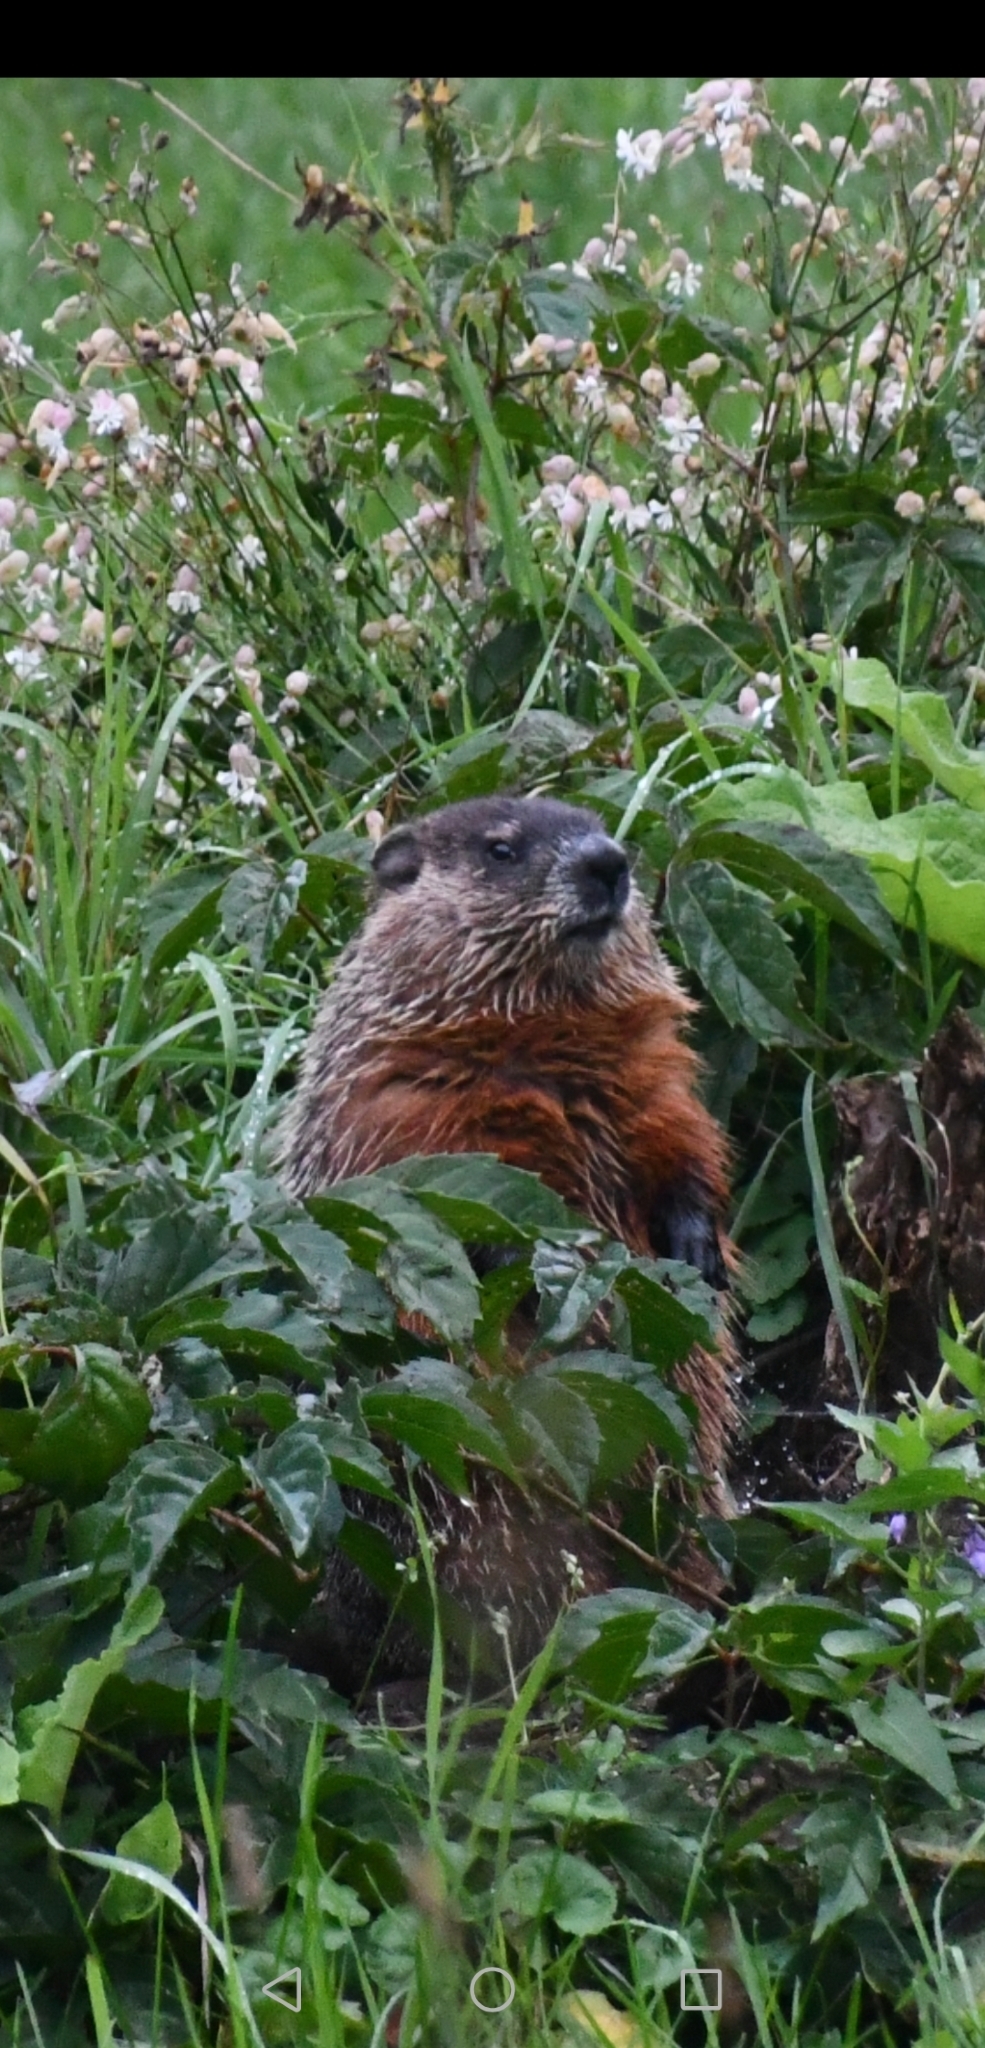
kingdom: Animalia
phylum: Chordata
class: Mammalia
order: Rodentia
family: Sciuridae
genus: Marmota
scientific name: Marmota monax
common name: Groundhog
